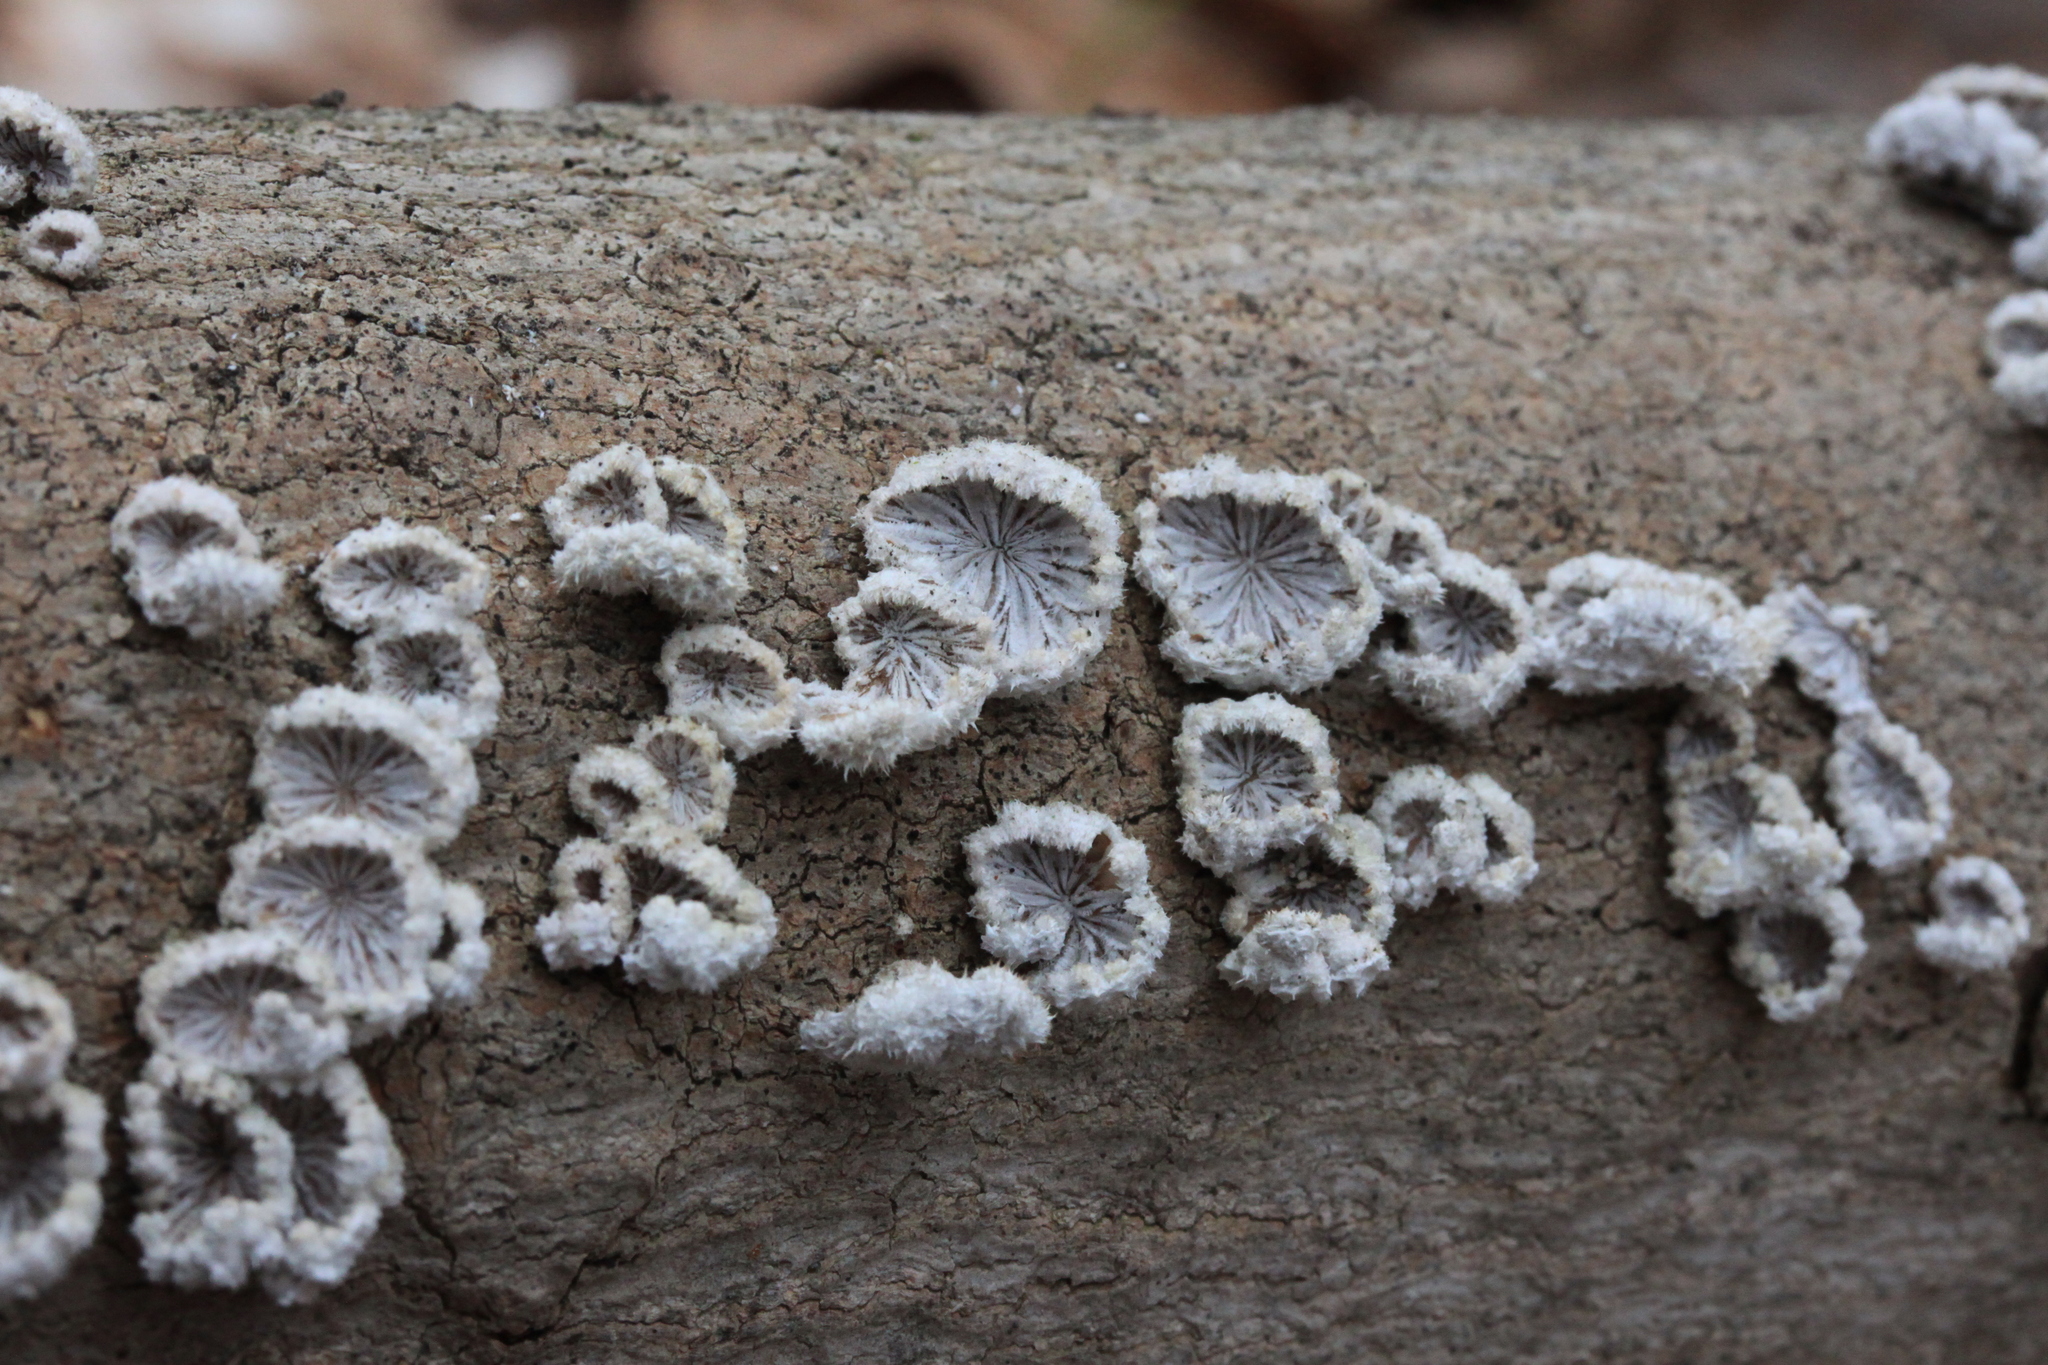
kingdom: Fungi
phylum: Basidiomycota
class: Agaricomycetes
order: Agaricales
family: Schizophyllaceae
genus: Schizophyllum
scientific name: Schizophyllum commune
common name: Common porecrust
